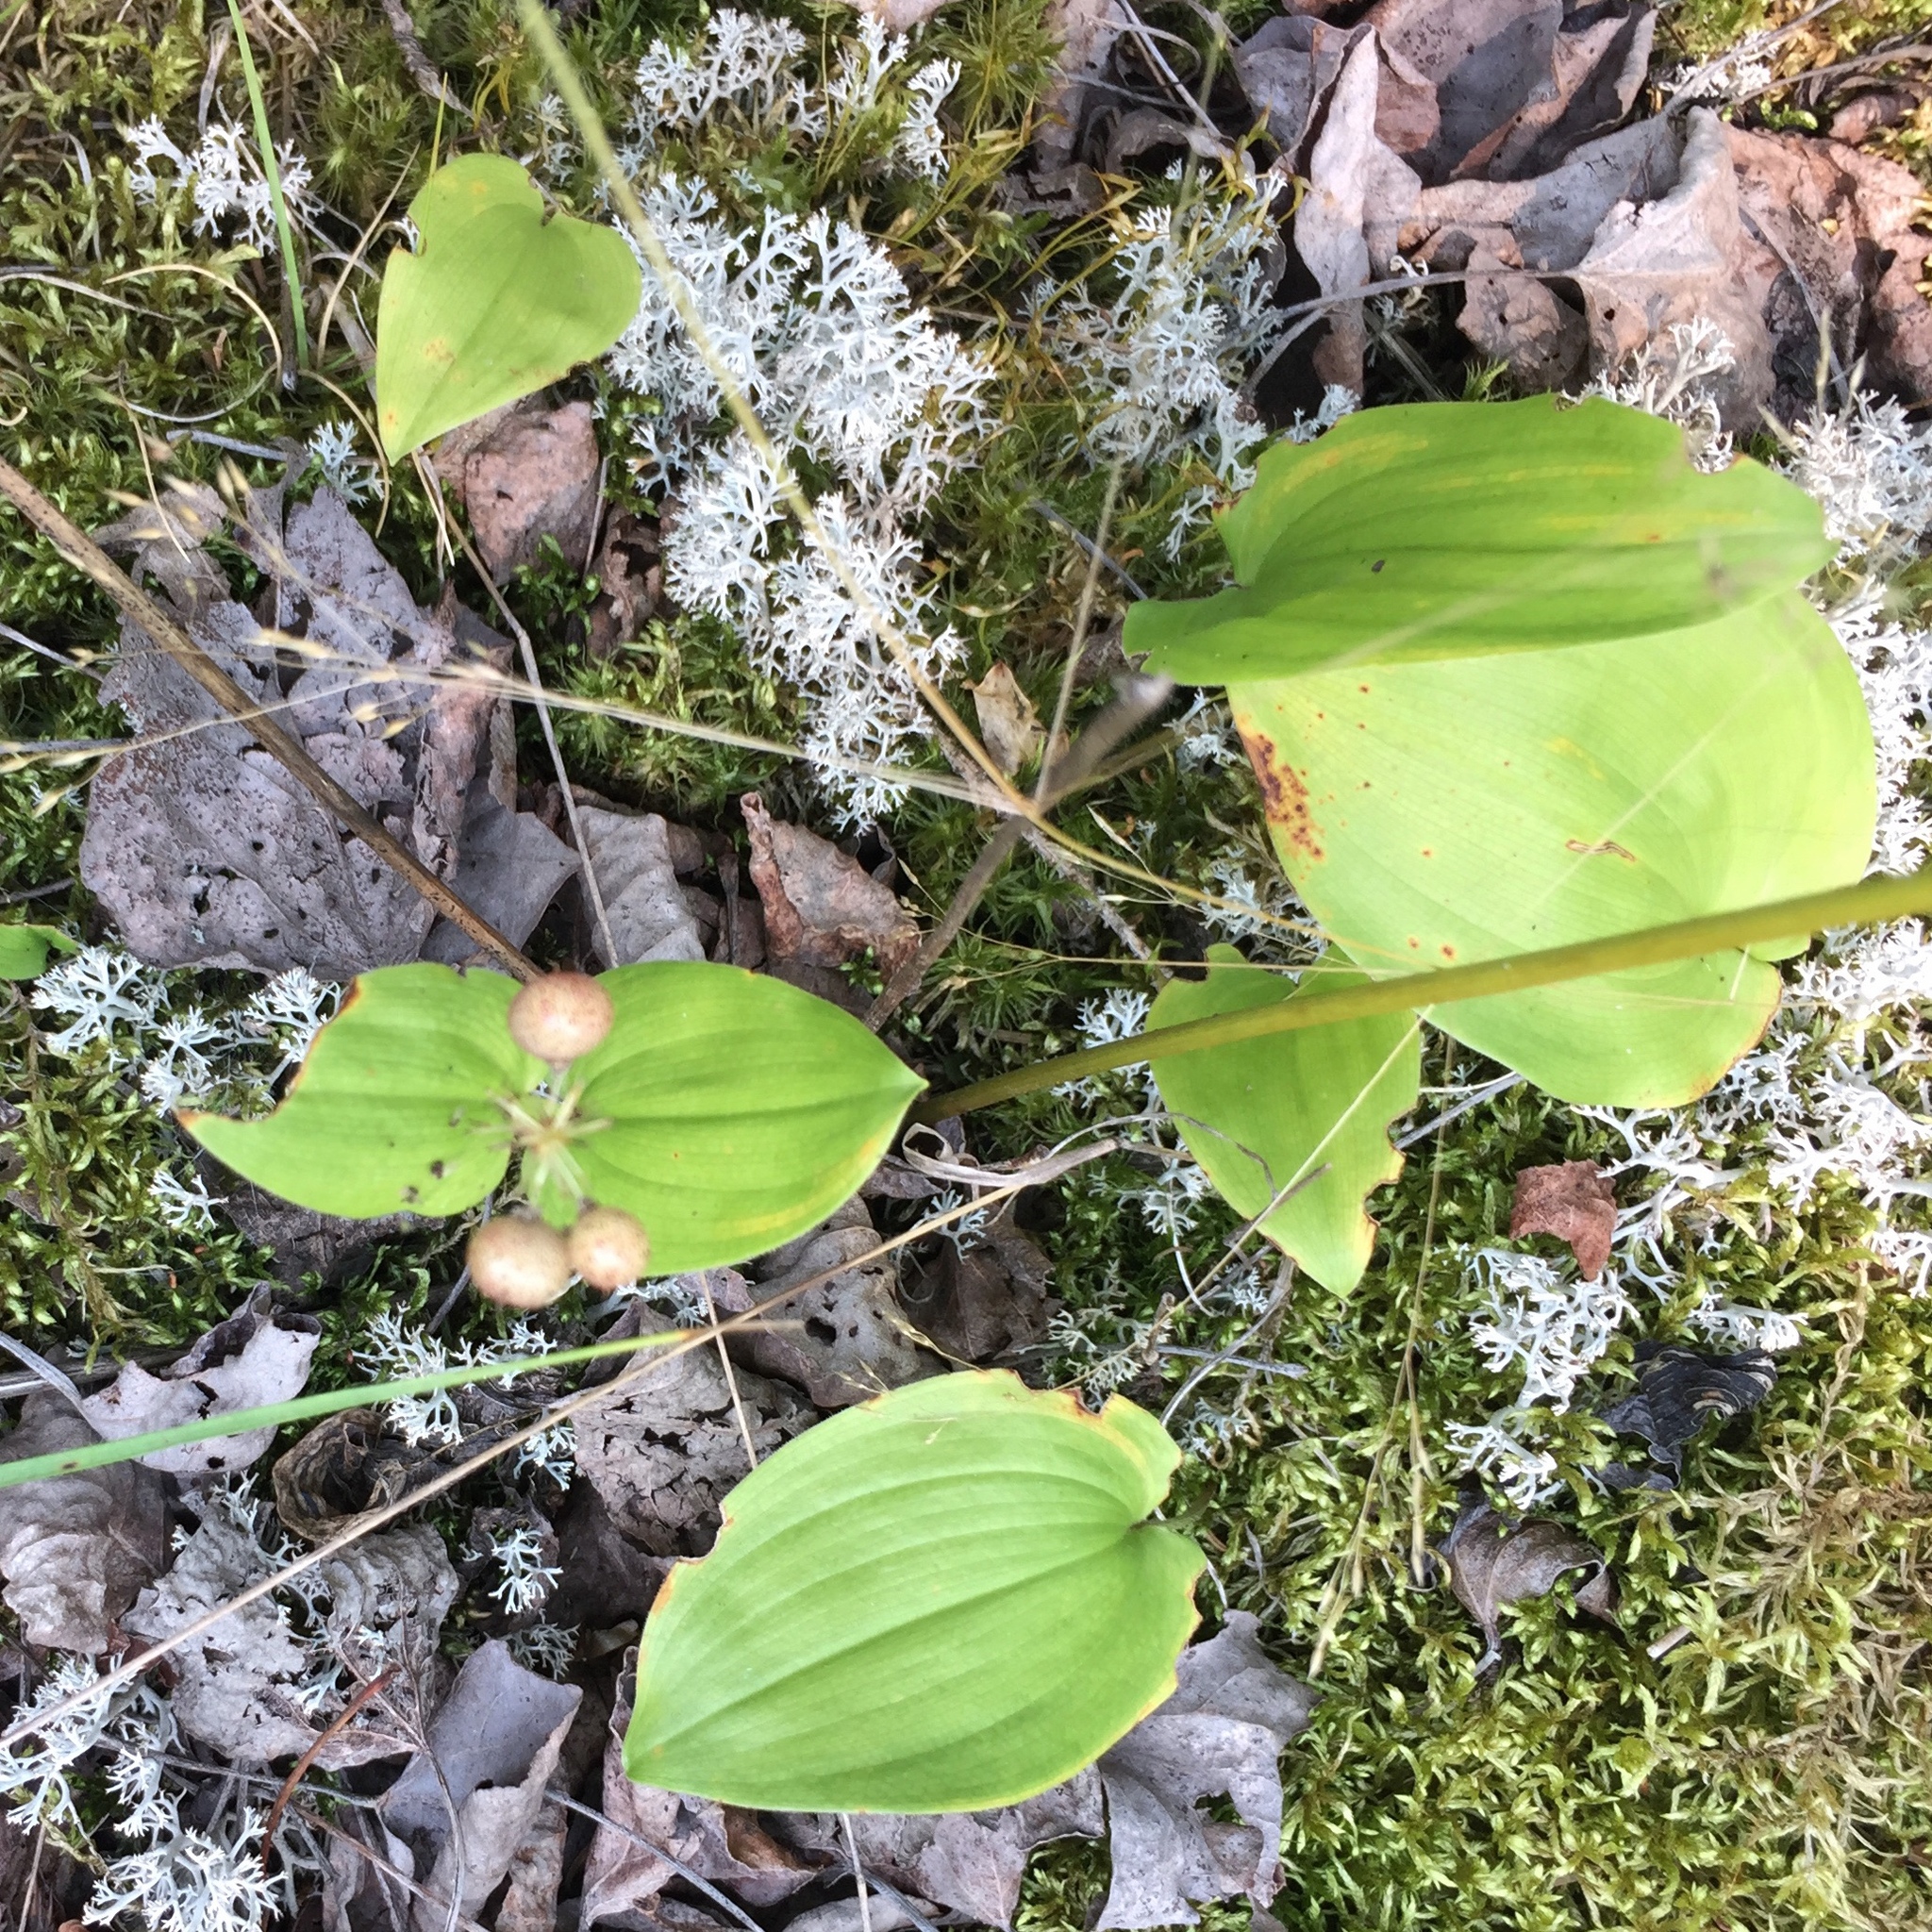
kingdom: Plantae
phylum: Tracheophyta
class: Liliopsida
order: Asparagales
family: Asparagaceae
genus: Maianthemum
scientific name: Maianthemum canadense
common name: False lily-of-the-valley
